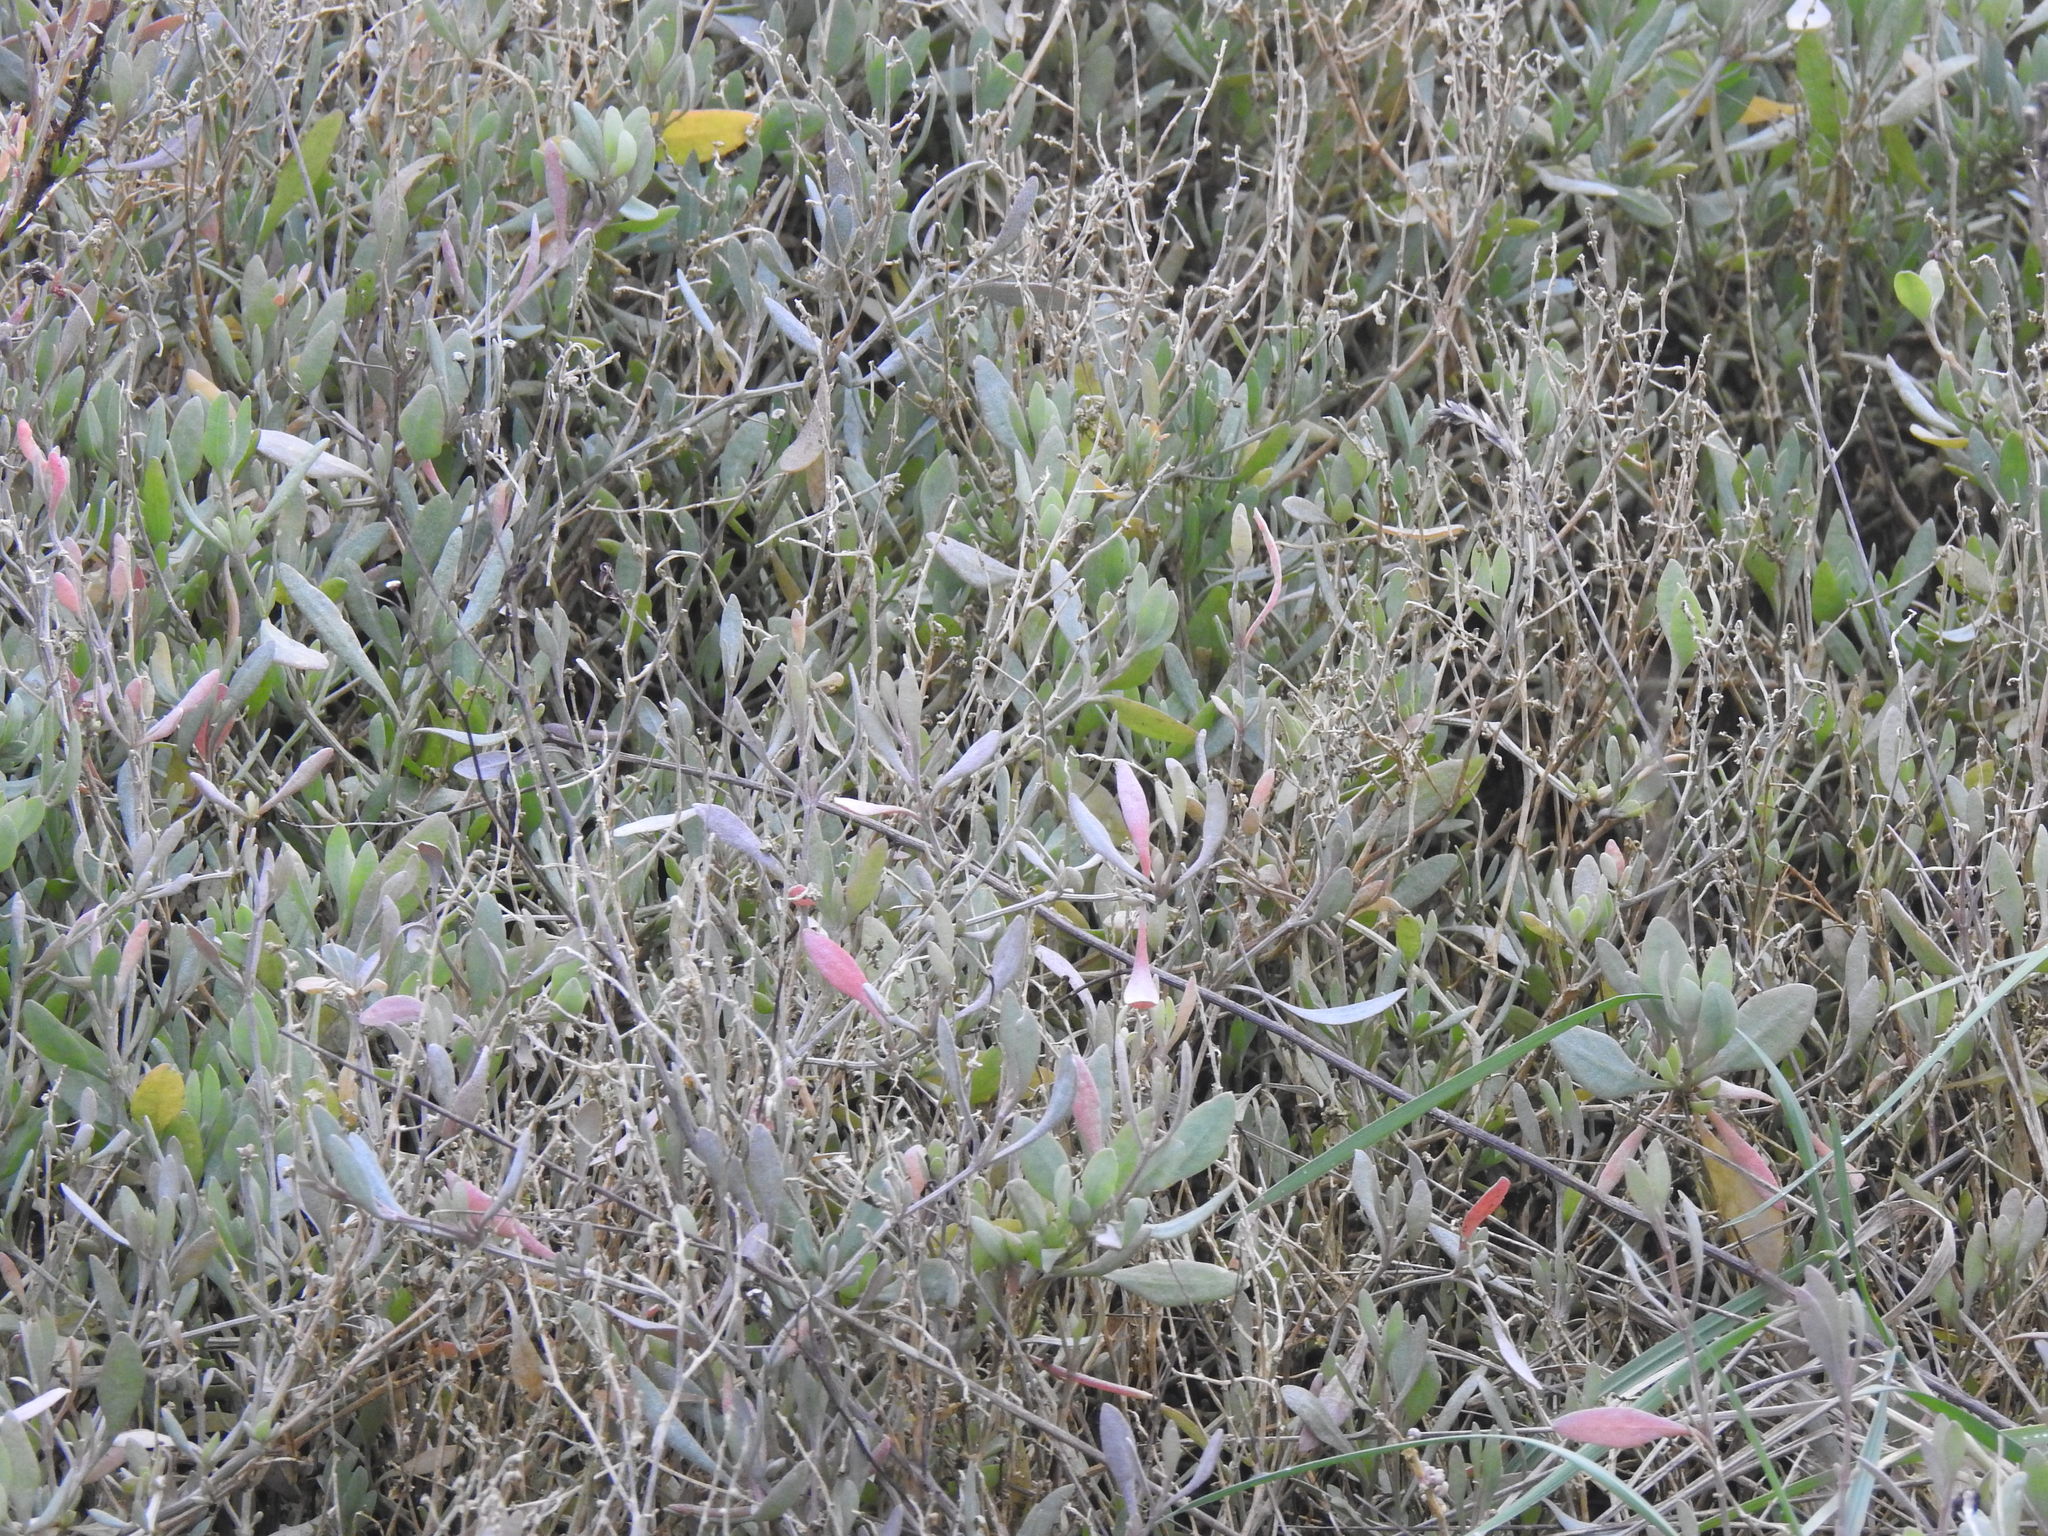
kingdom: Plantae
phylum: Tracheophyta
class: Magnoliopsida
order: Caryophyllales
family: Amaranthaceae
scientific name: Amaranthaceae
